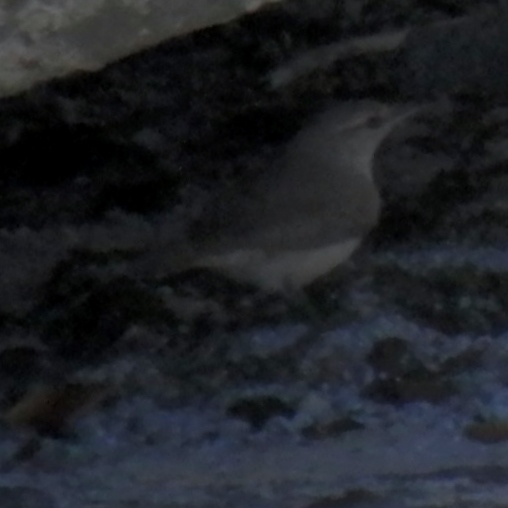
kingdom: Animalia
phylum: Chordata
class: Aves
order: Passeriformes
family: Troglodytidae
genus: Salpinctes
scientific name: Salpinctes obsoletus
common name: Rock wren
